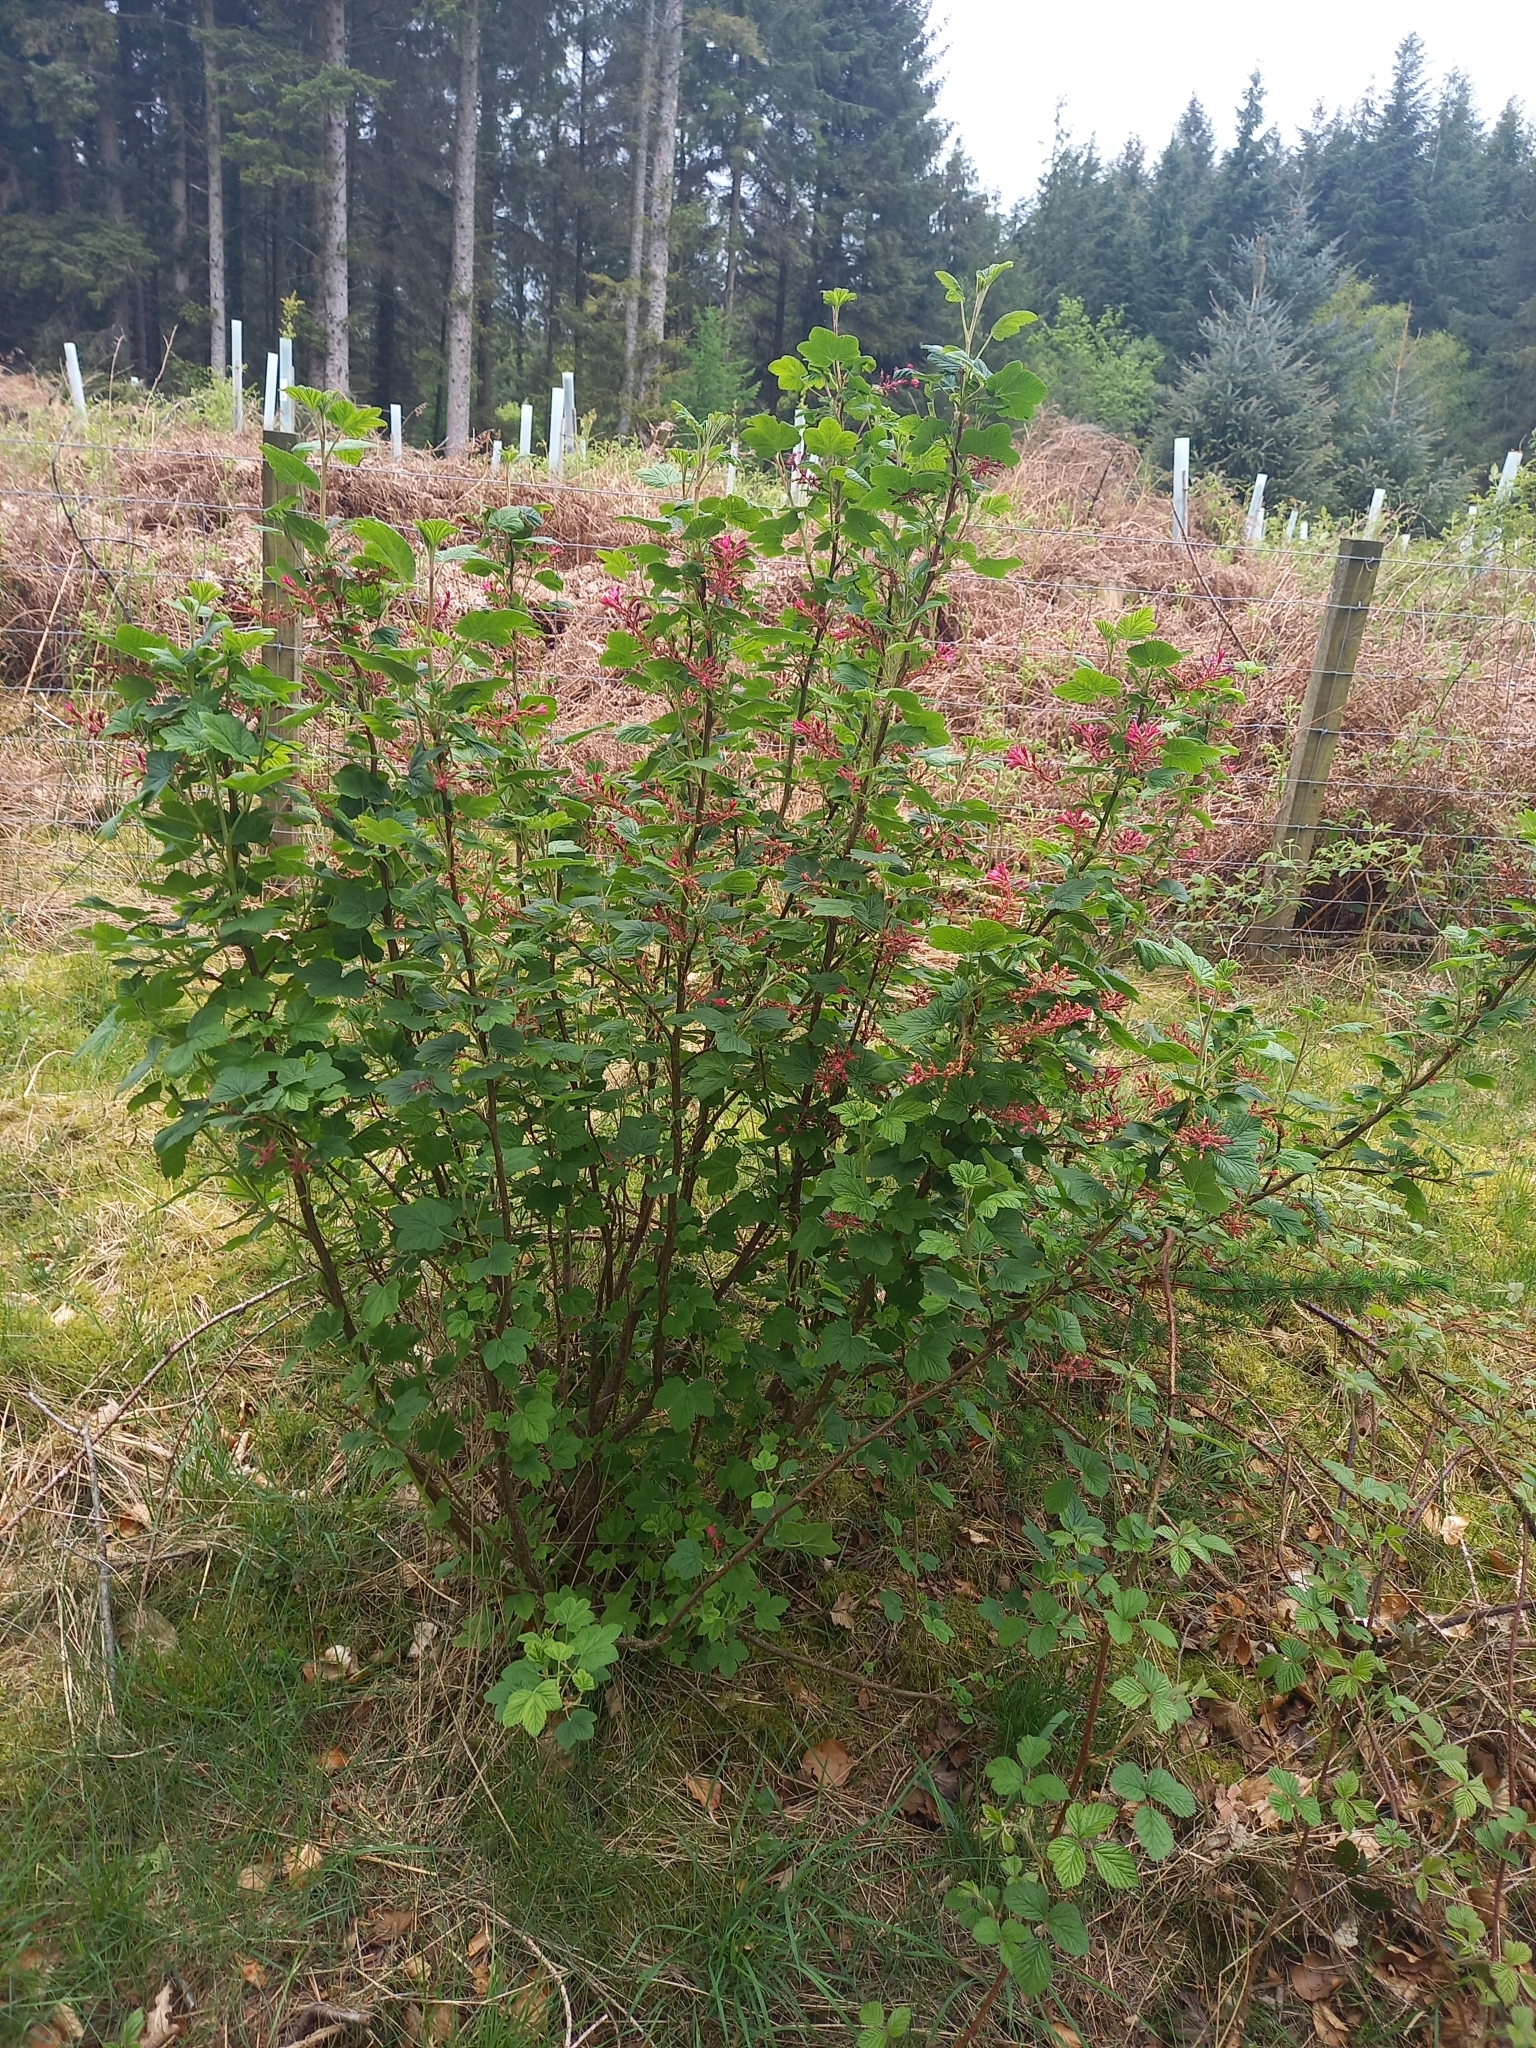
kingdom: Plantae
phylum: Tracheophyta
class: Magnoliopsida
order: Saxifragales
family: Grossulariaceae
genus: Ribes
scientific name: Ribes sanguineum
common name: Flowering currant
